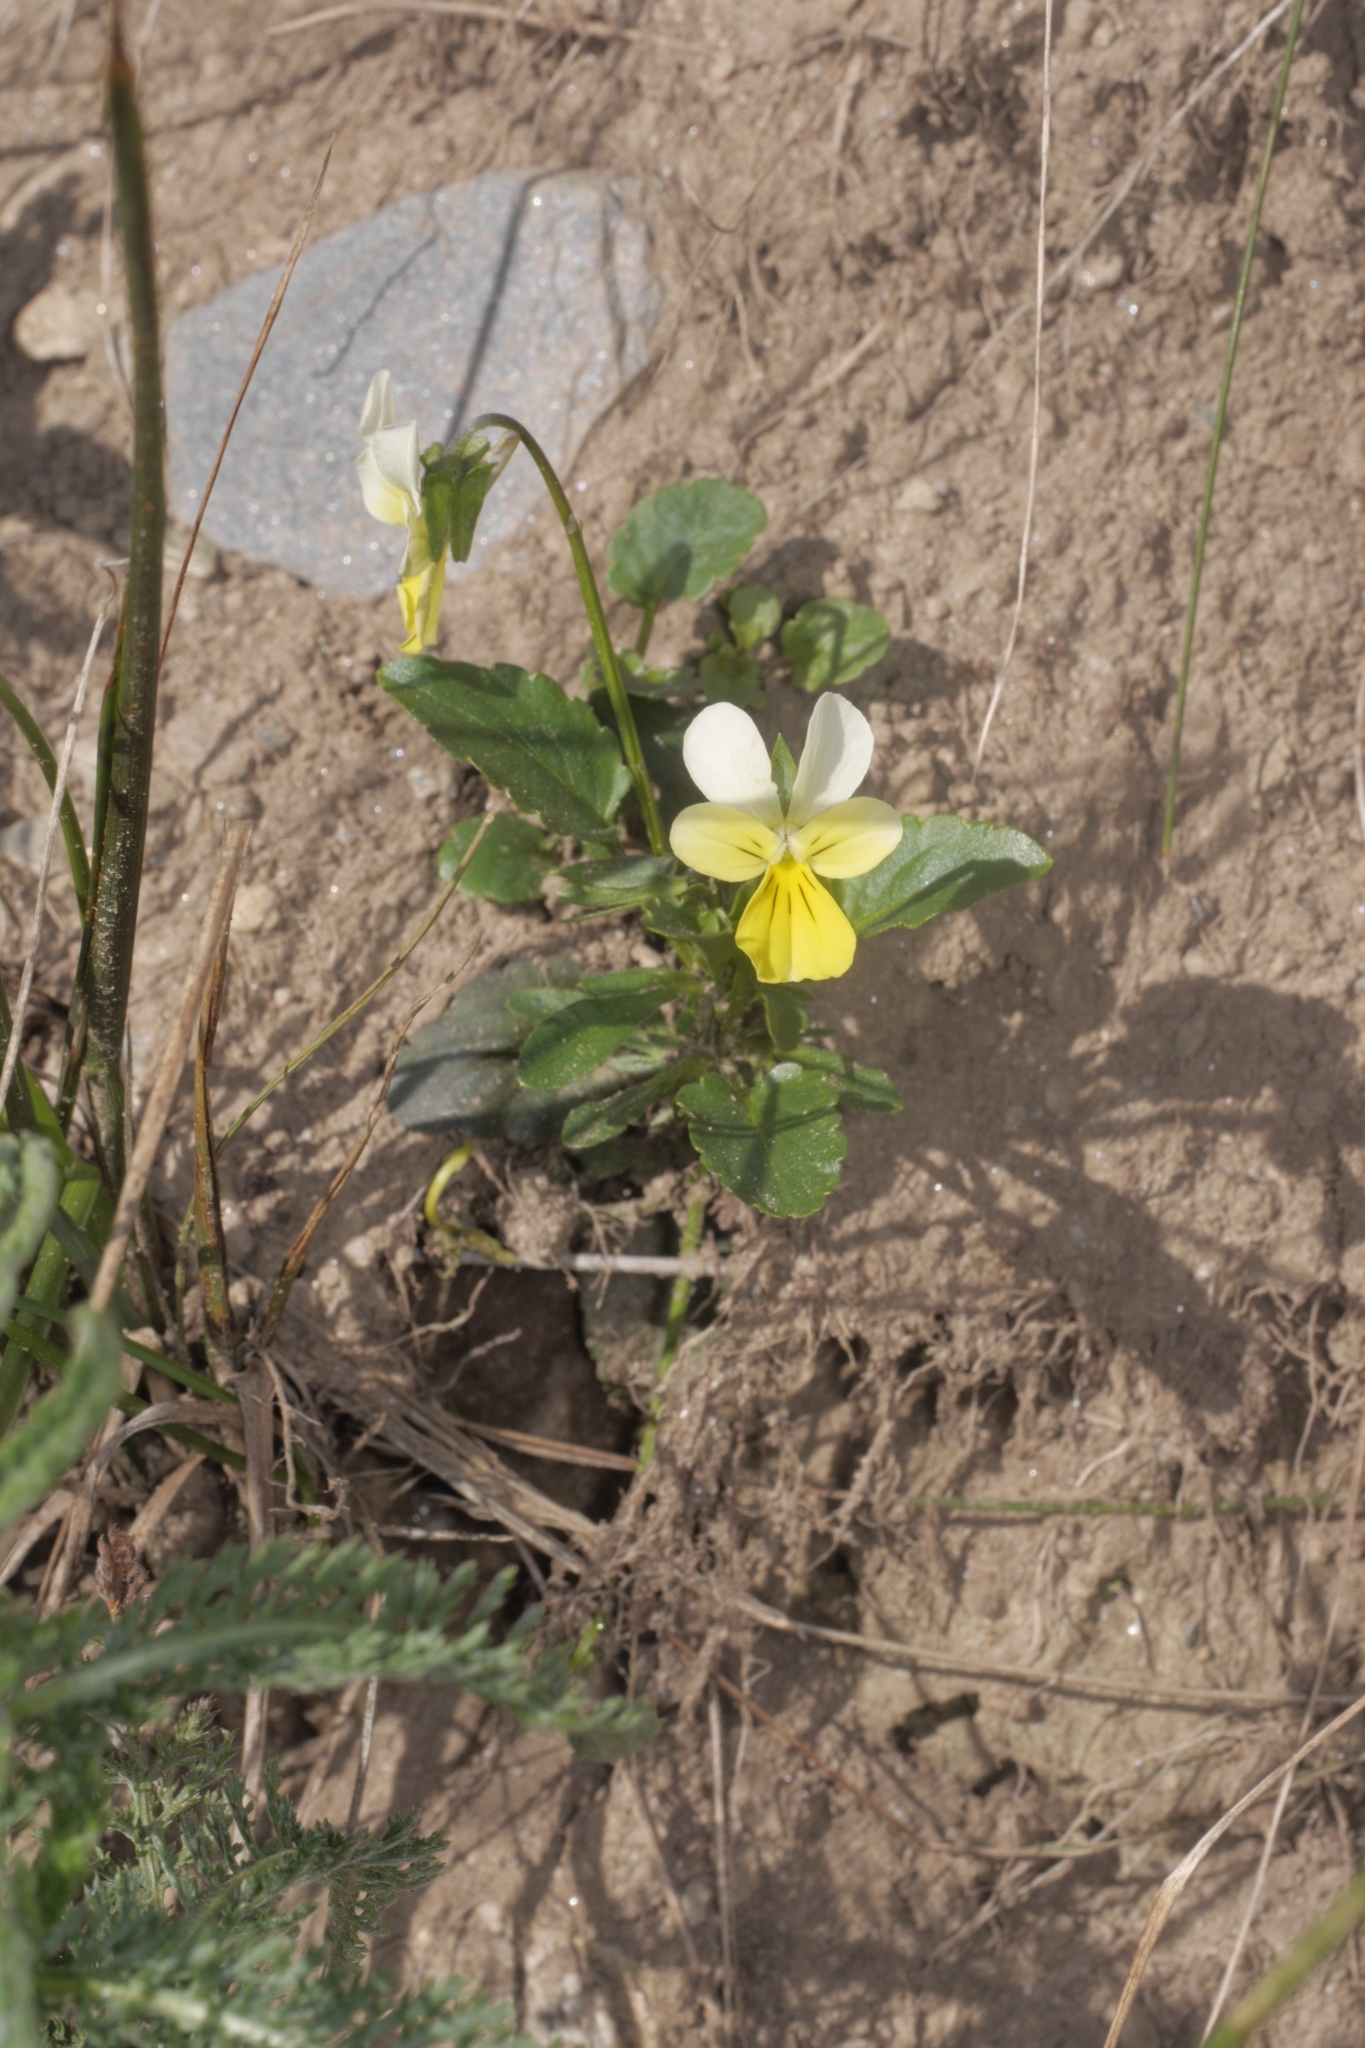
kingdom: Plantae
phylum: Tracheophyta
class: Magnoliopsida
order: Malpighiales
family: Violaceae
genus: Viola
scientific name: Viola arvensis
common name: Field pansy
